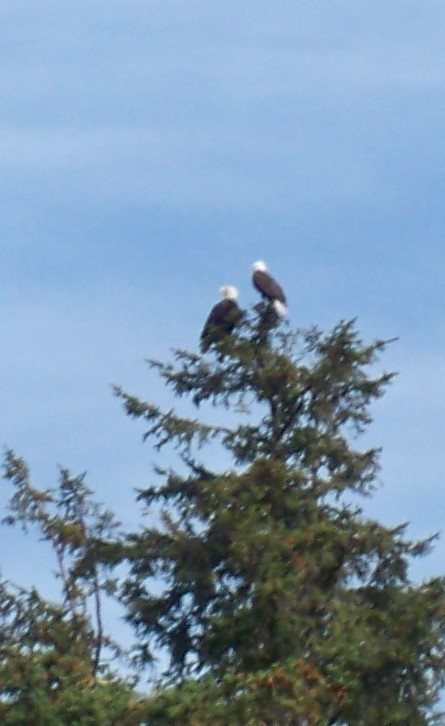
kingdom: Animalia
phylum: Chordata
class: Aves
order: Accipitriformes
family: Accipitridae
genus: Haliaeetus
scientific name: Haliaeetus leucocephalus
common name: Bald eagle
